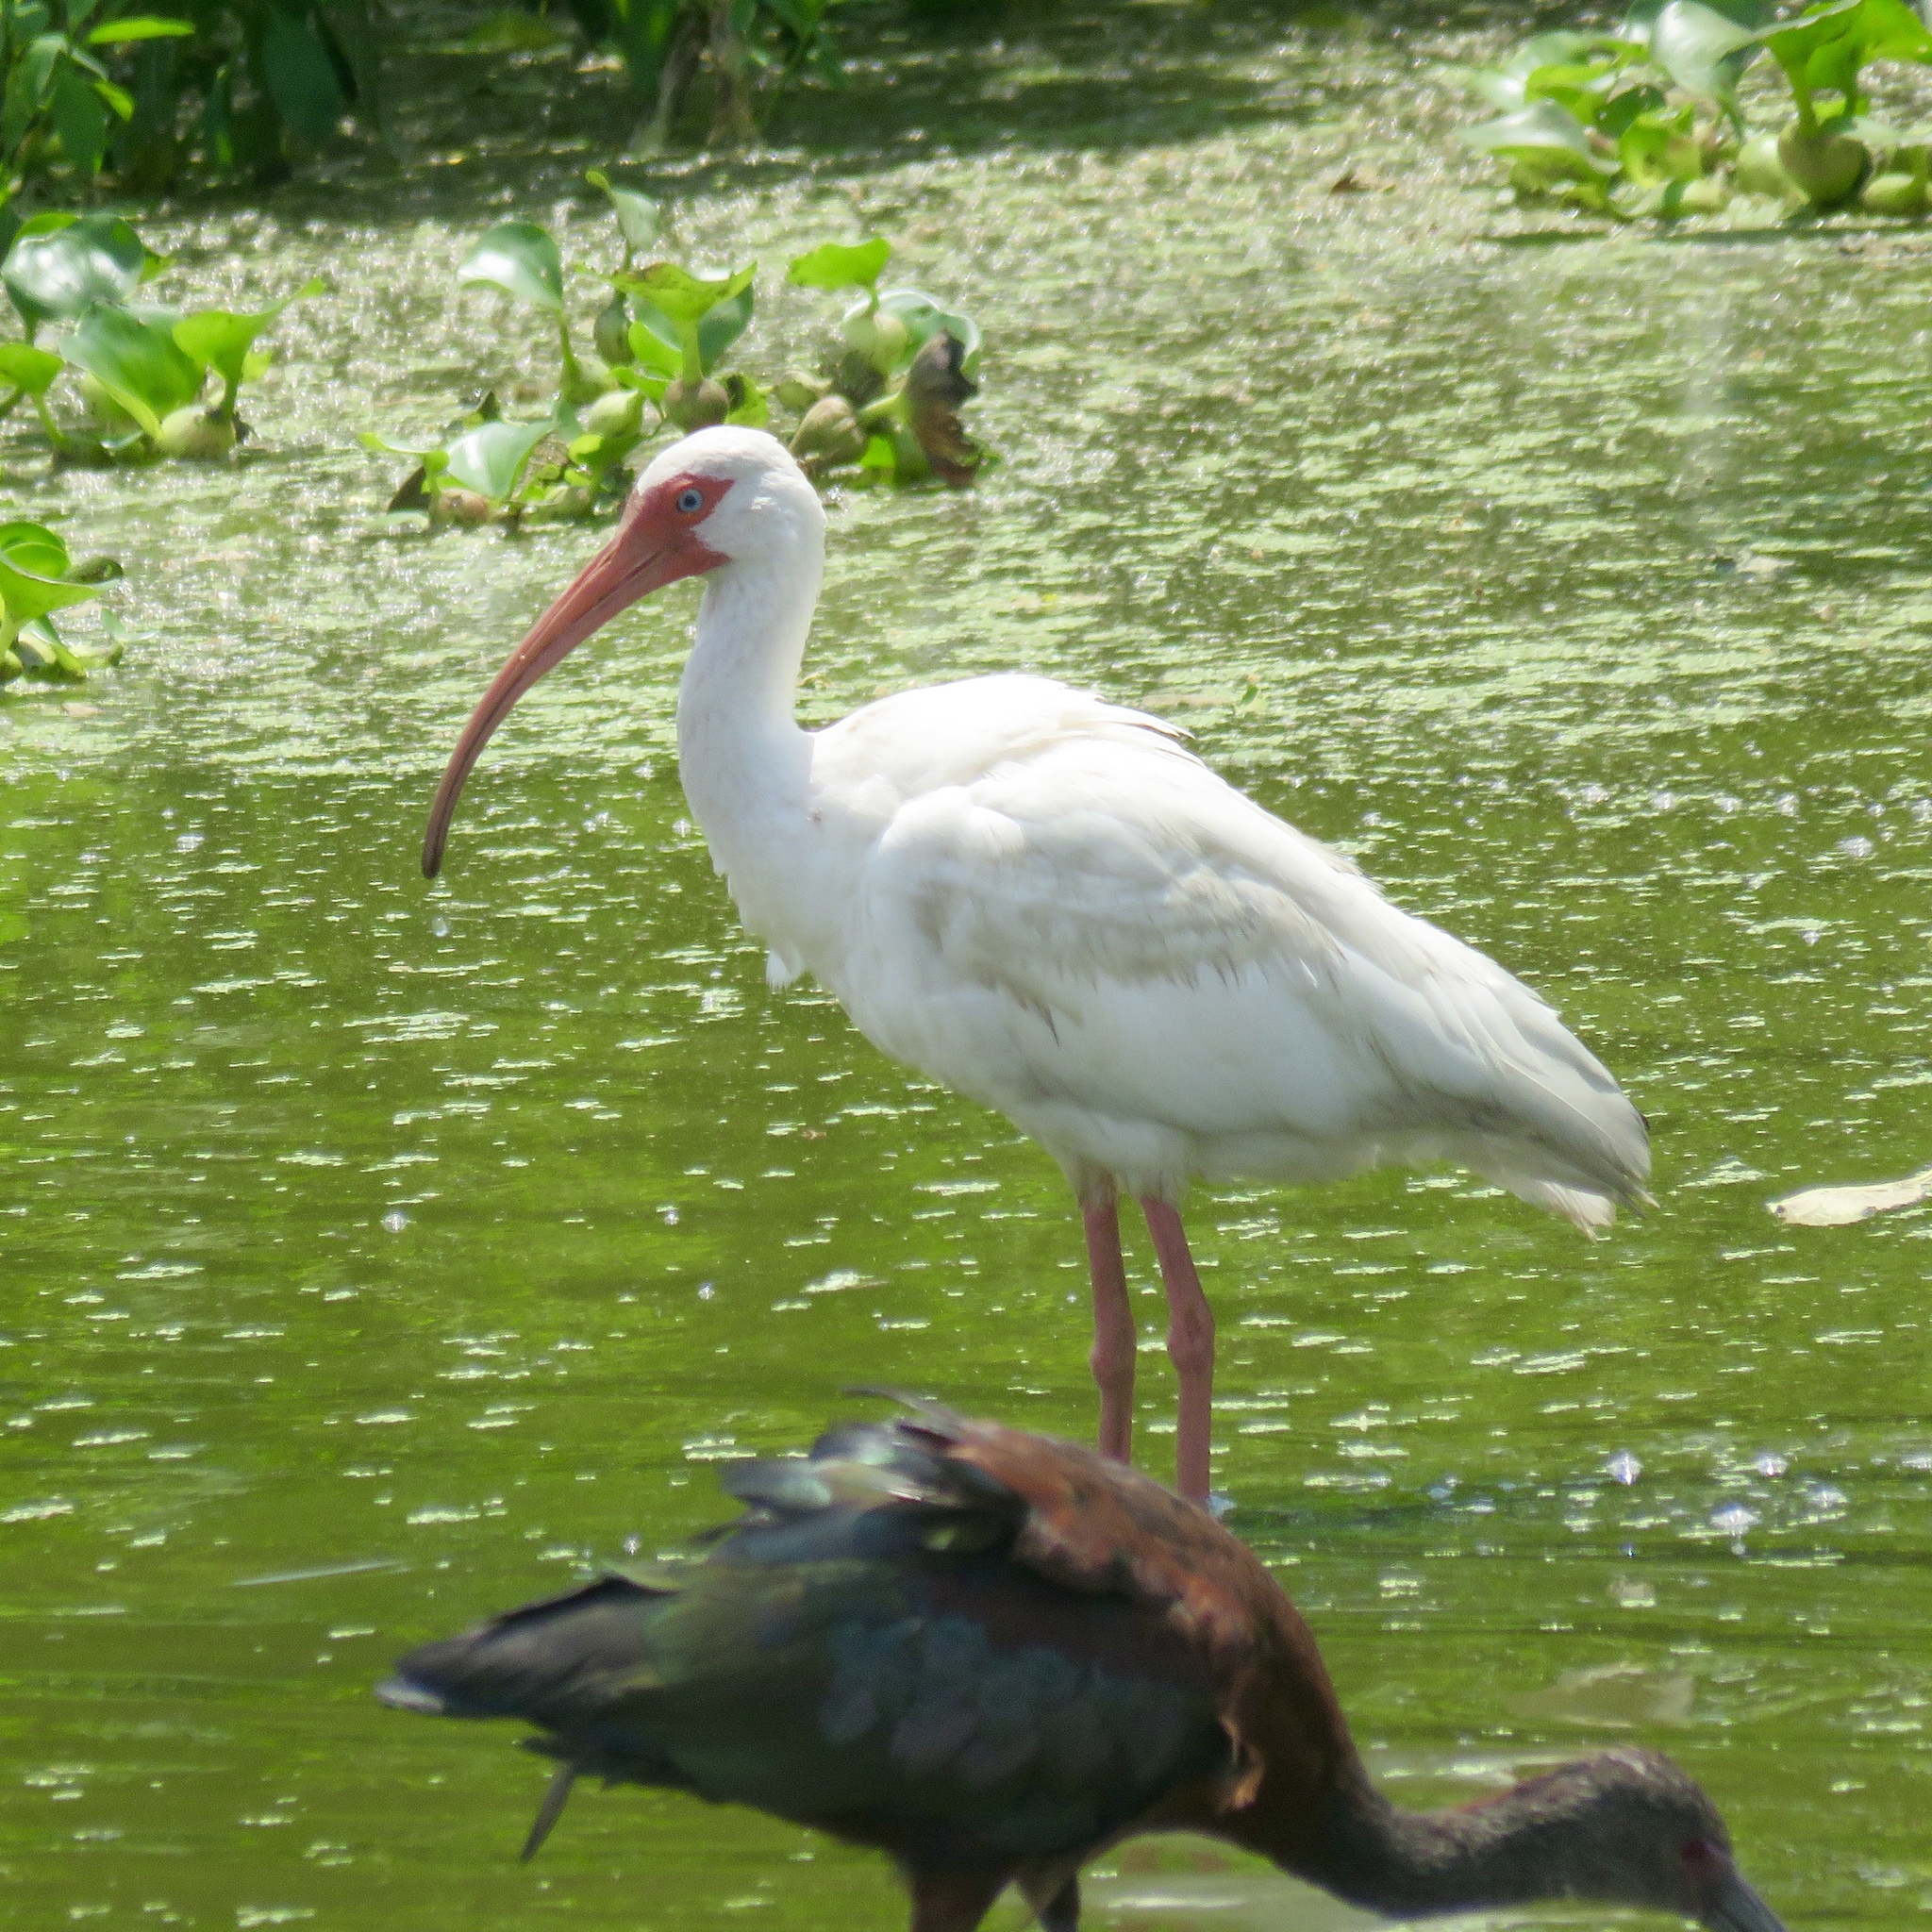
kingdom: Animalia
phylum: Chordata
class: Aves
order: Pelecaniformes
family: Threskiornithidae
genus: Eudocimus
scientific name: Eudocimus albus
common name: White ibis
